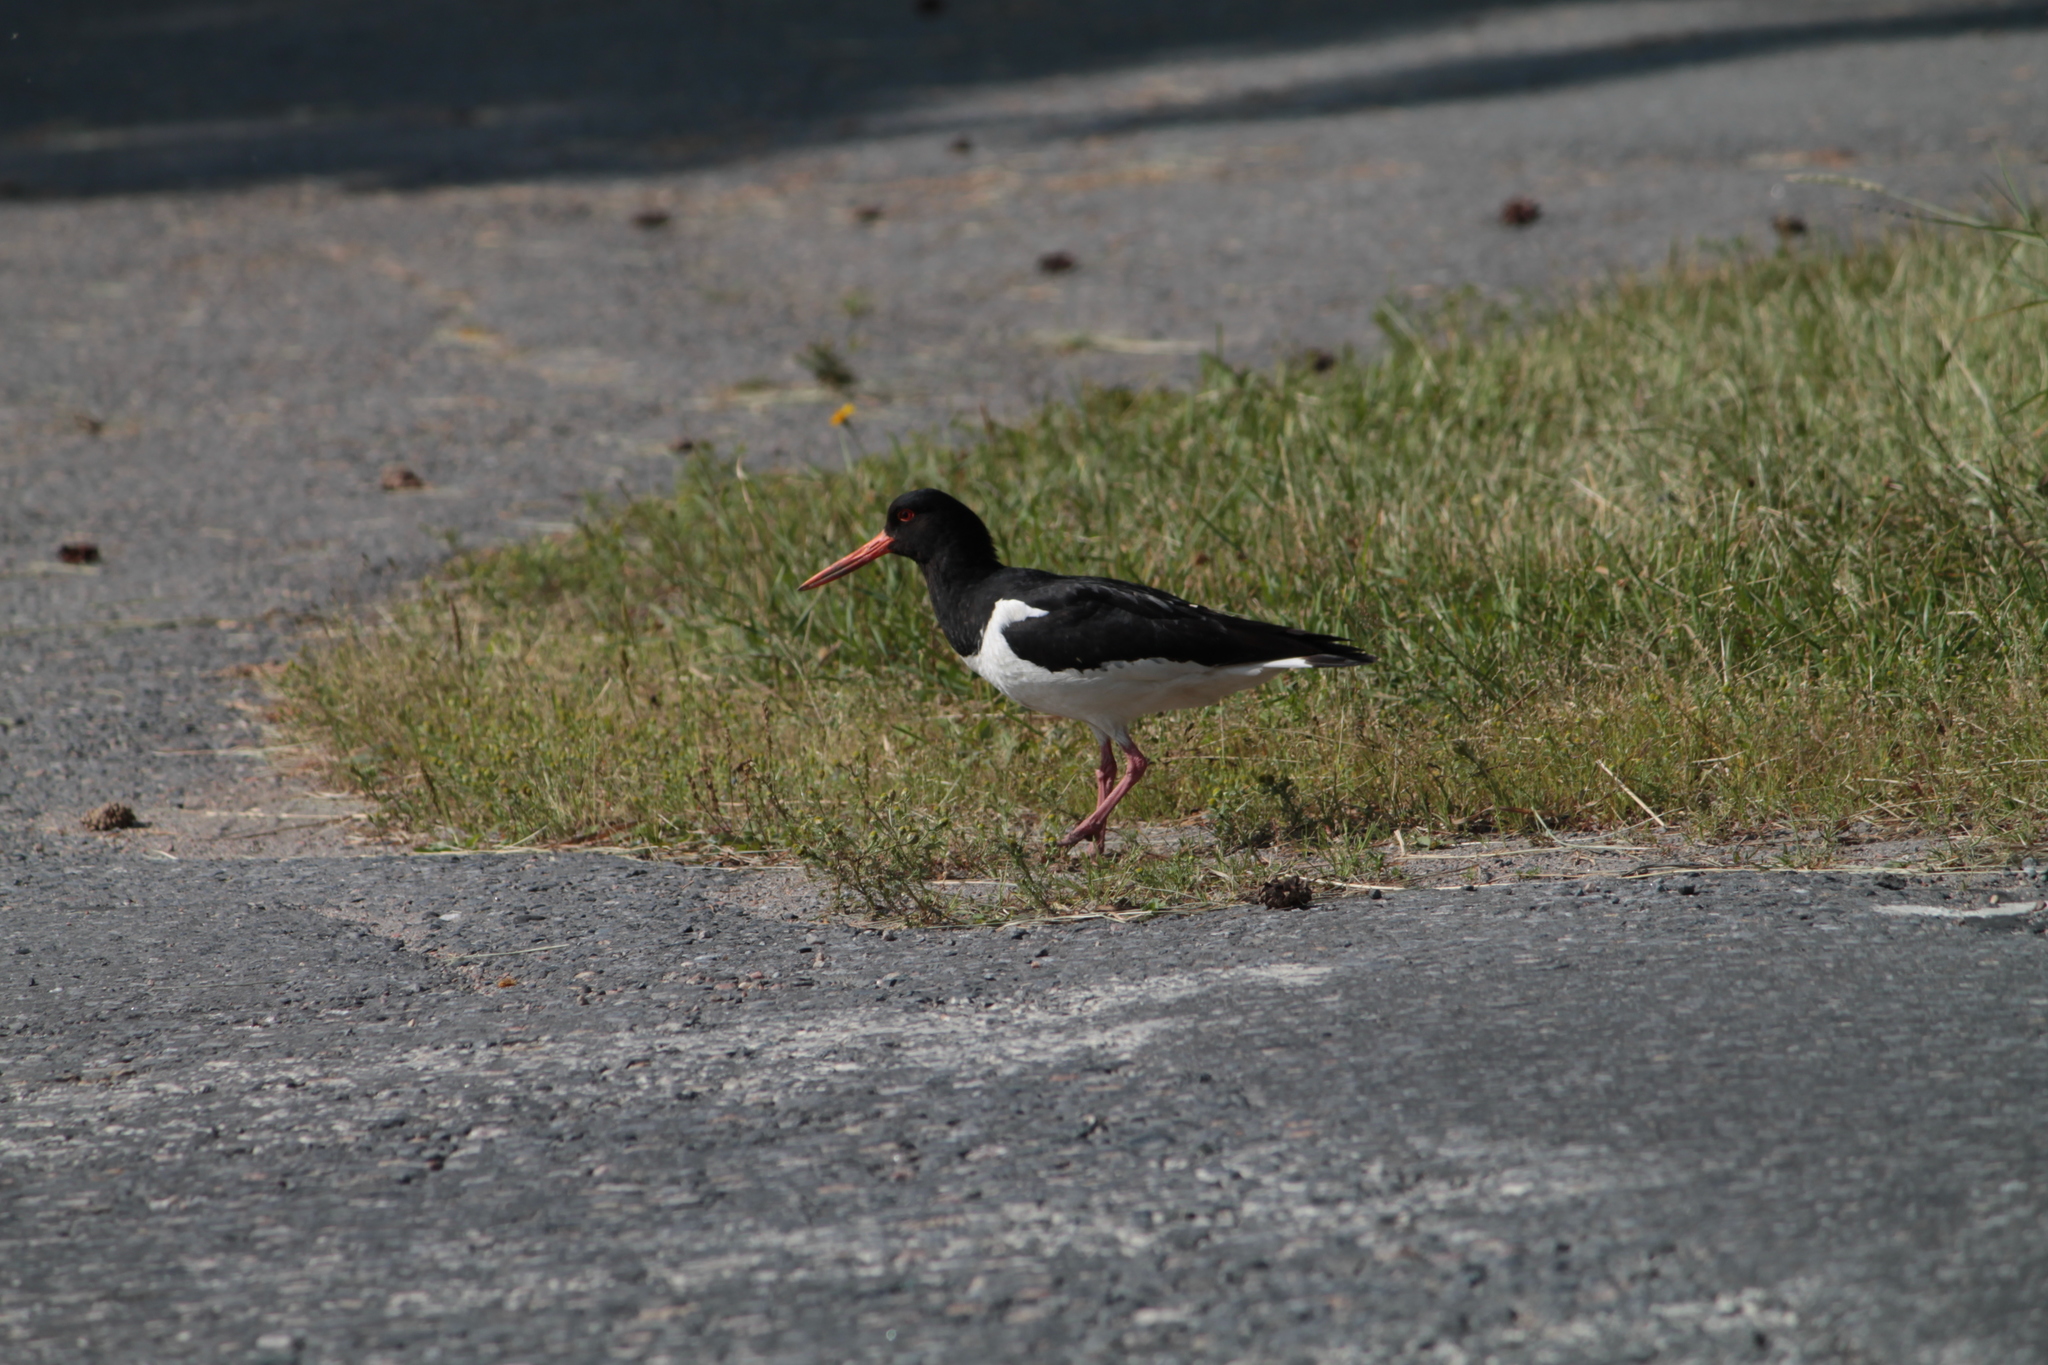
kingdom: Animalia
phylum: Chordata
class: Aves
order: Charadriiformes
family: Haematopodidae
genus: Haematopus
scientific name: Haematopus ostralegus
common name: Eurasian oystercatcher
